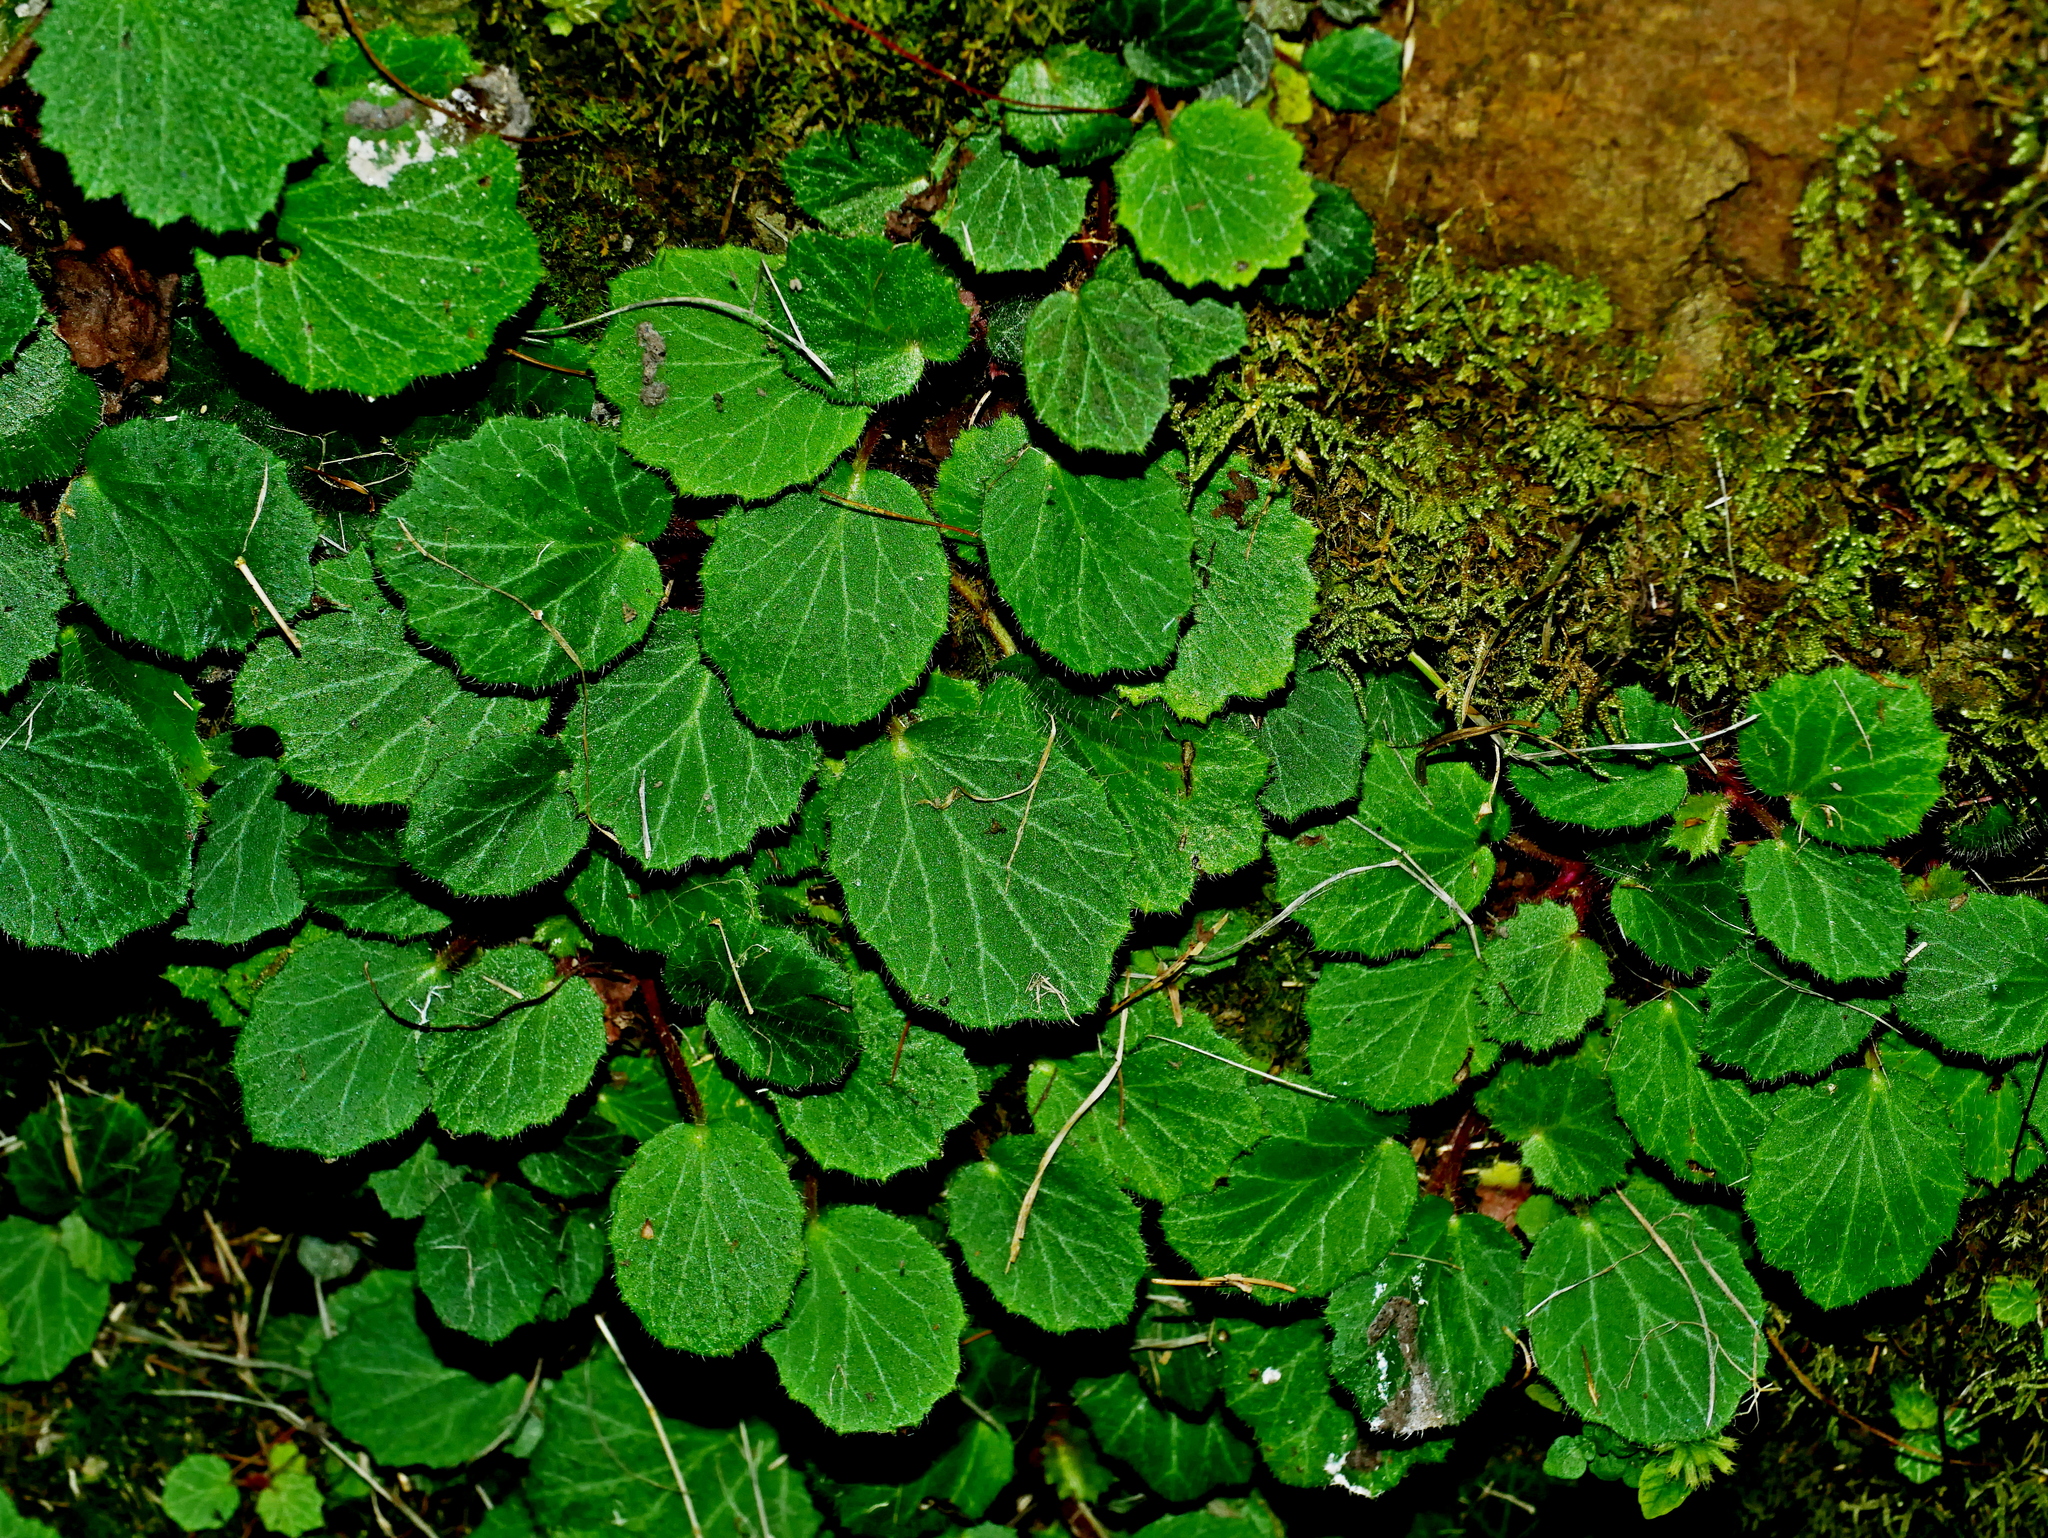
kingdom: Plantae
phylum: Tracheophyta
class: Magnoliopsida
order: Saxifragales
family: Saxifragaceae
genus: Saxifraga
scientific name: Saxifraga stolonifera
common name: Creeping saxifrage
